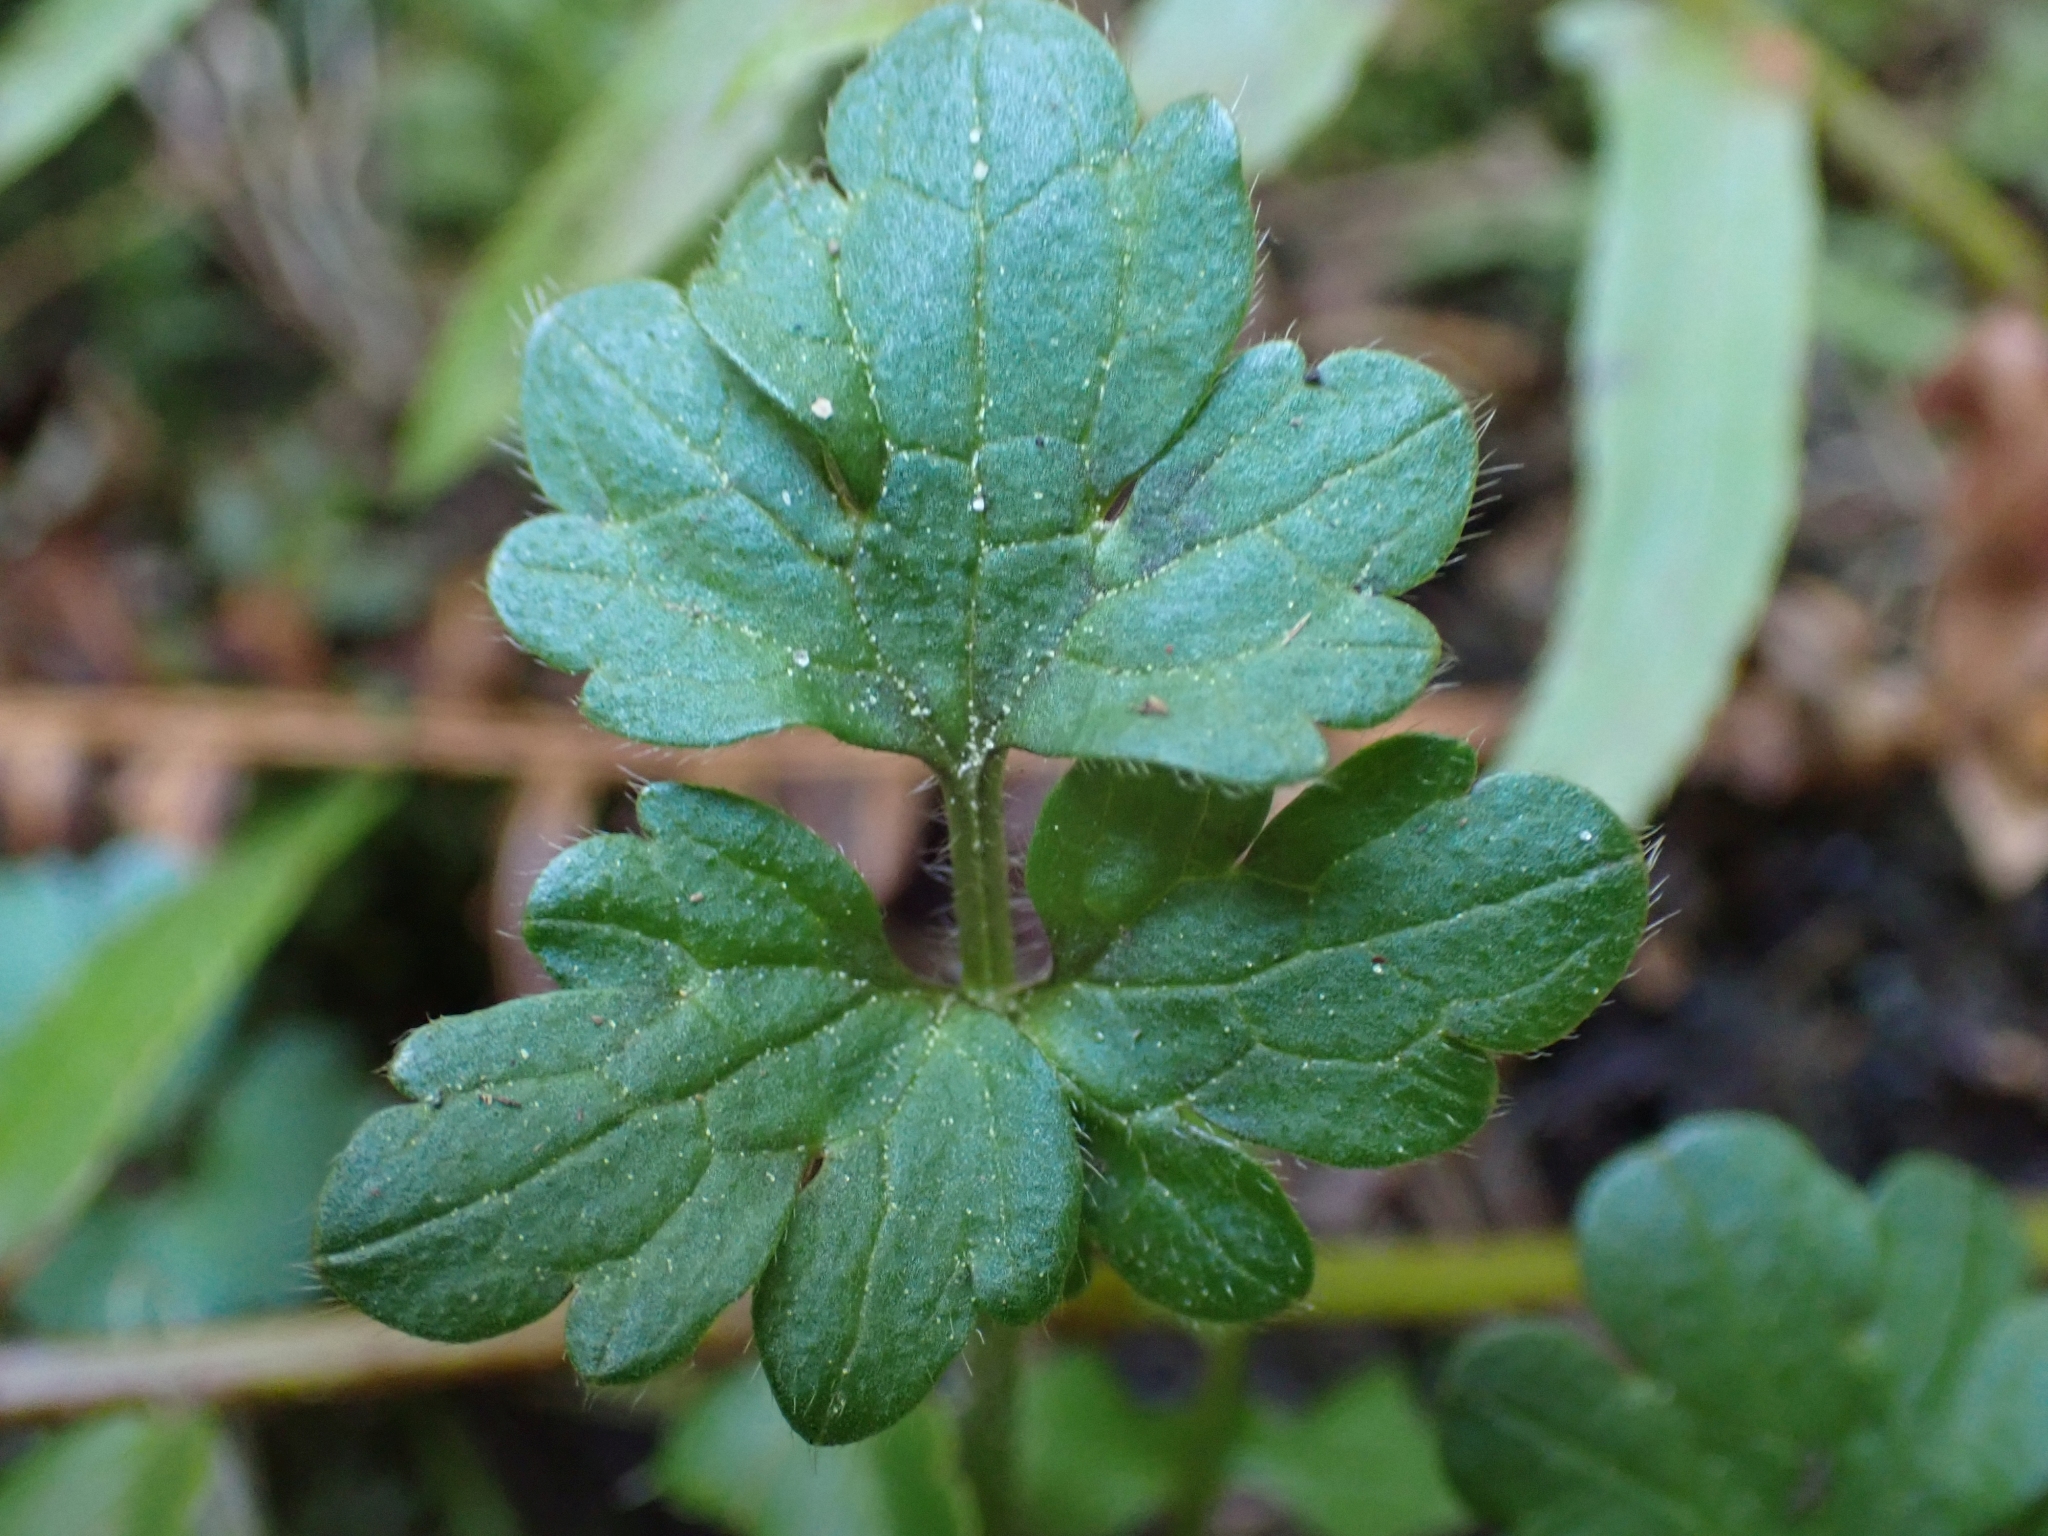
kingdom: Plantae
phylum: Tracheophyta
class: Magnoliopsida
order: Ranunculales
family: Ranunculaceae
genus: Ranunculus
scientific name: Ranunculus repens
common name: Creeping buttercup
